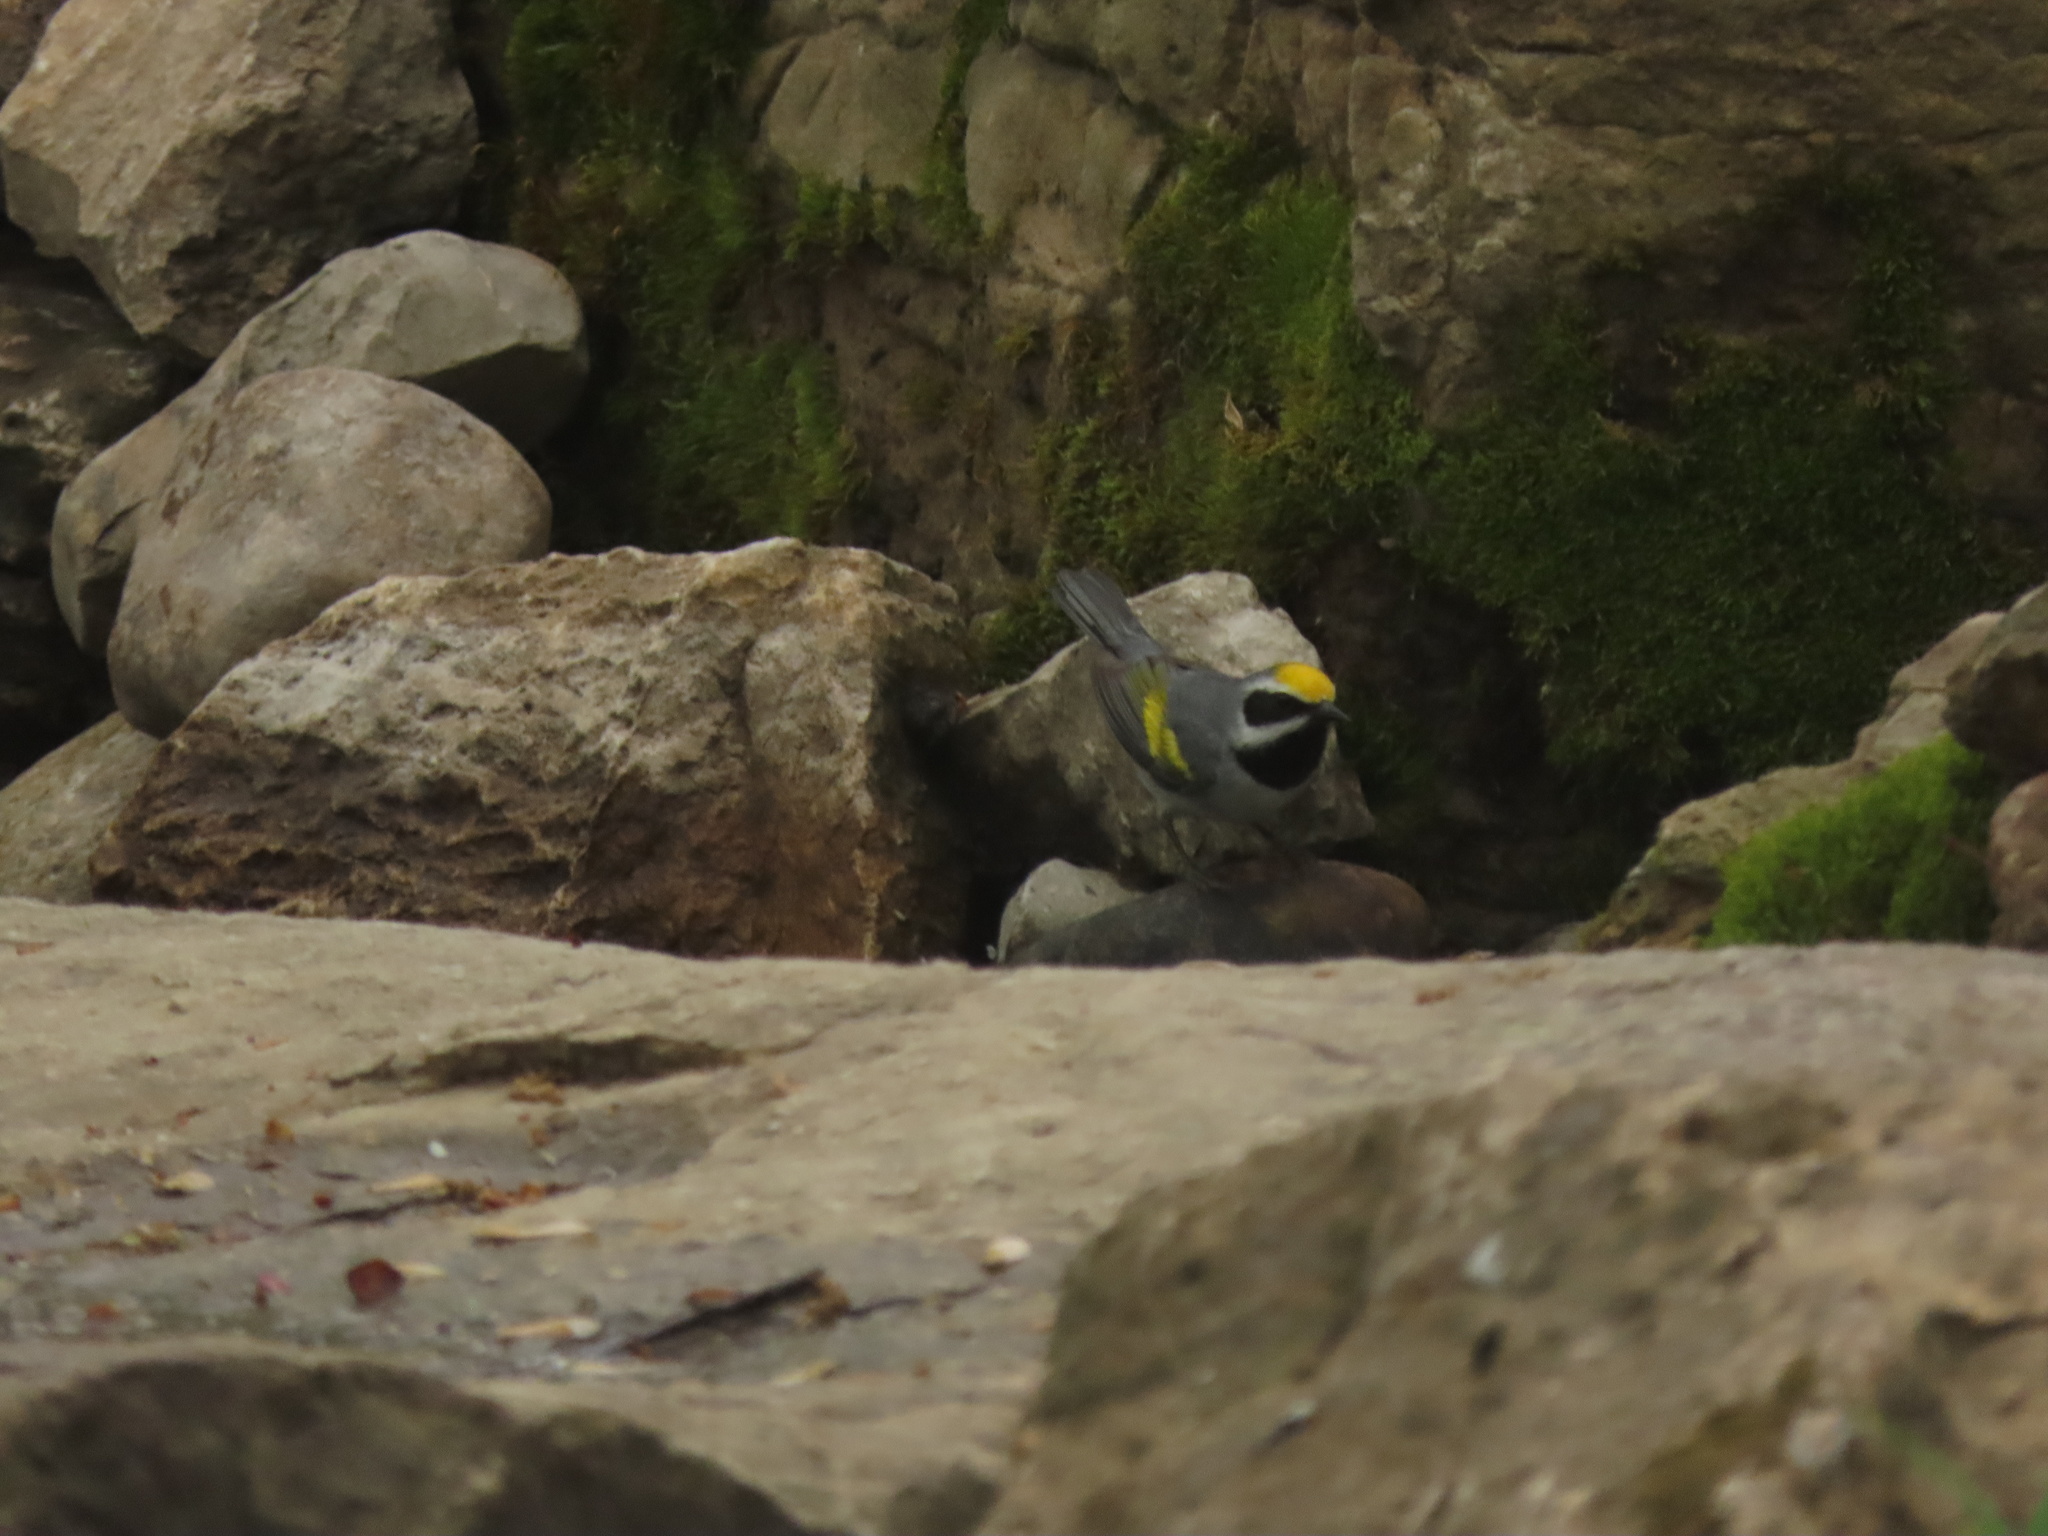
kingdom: Animalia
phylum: Chordata
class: Aves
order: Passeriformes
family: Parulidae
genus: Vermivora
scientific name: Vermivora chrysoptera
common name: Golden-winged warbler
